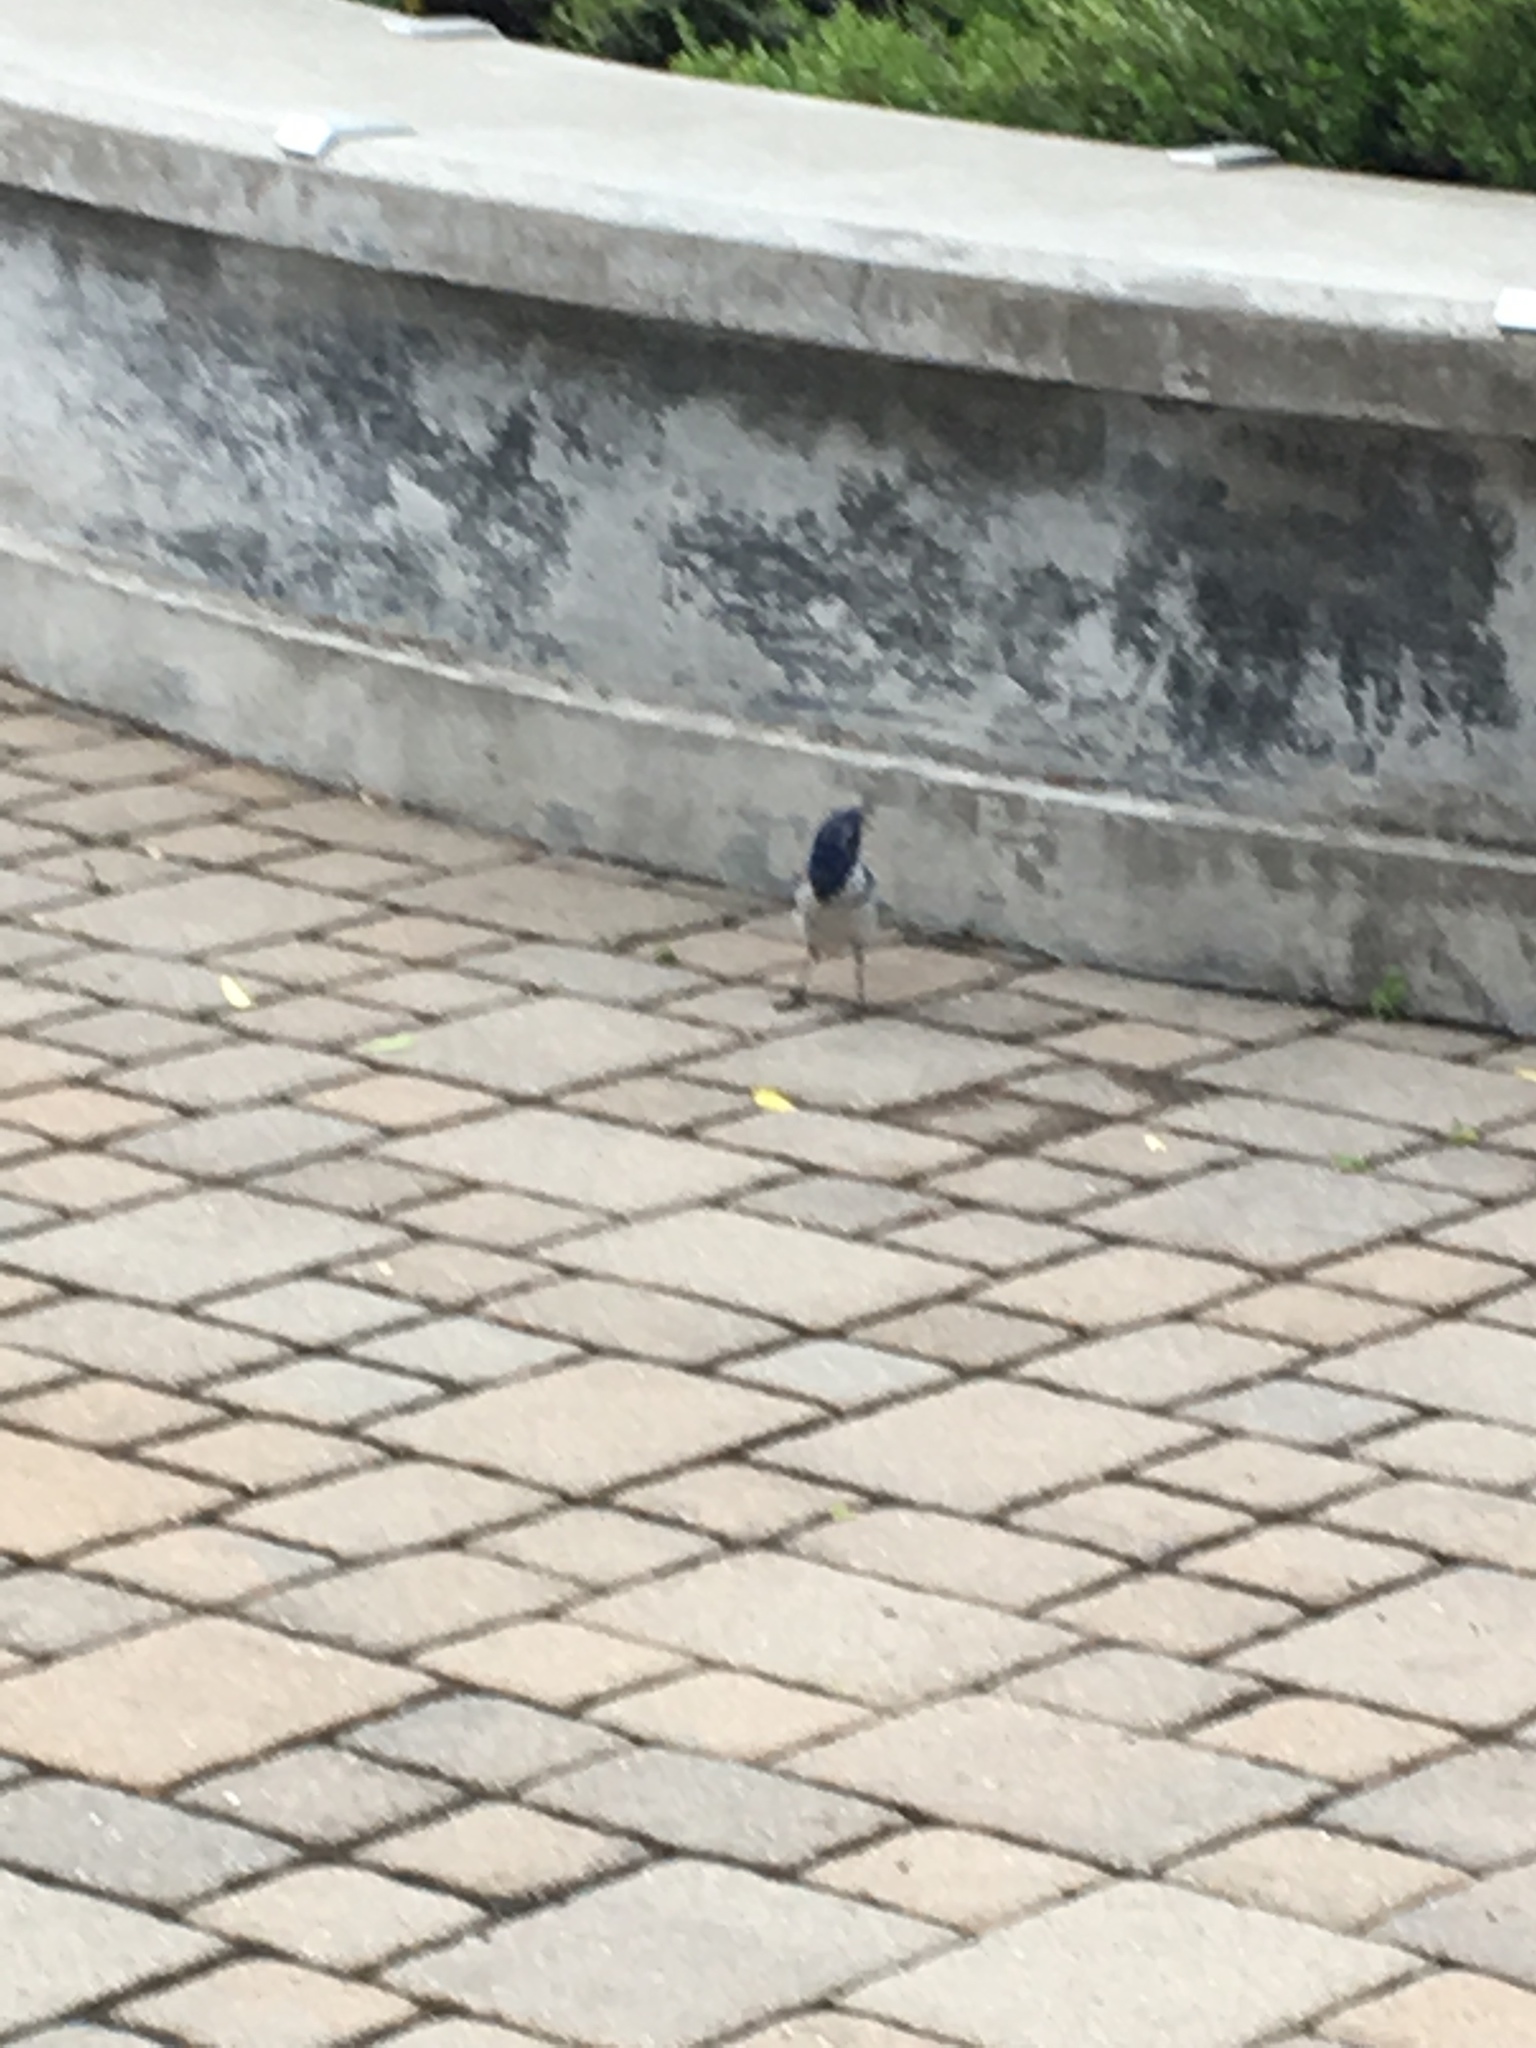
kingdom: Animalia
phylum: Chordata
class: Aves
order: Passeriformes
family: Corvidae
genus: Aphelocoma
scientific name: Aphelocoma californica
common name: California scrub-jay
